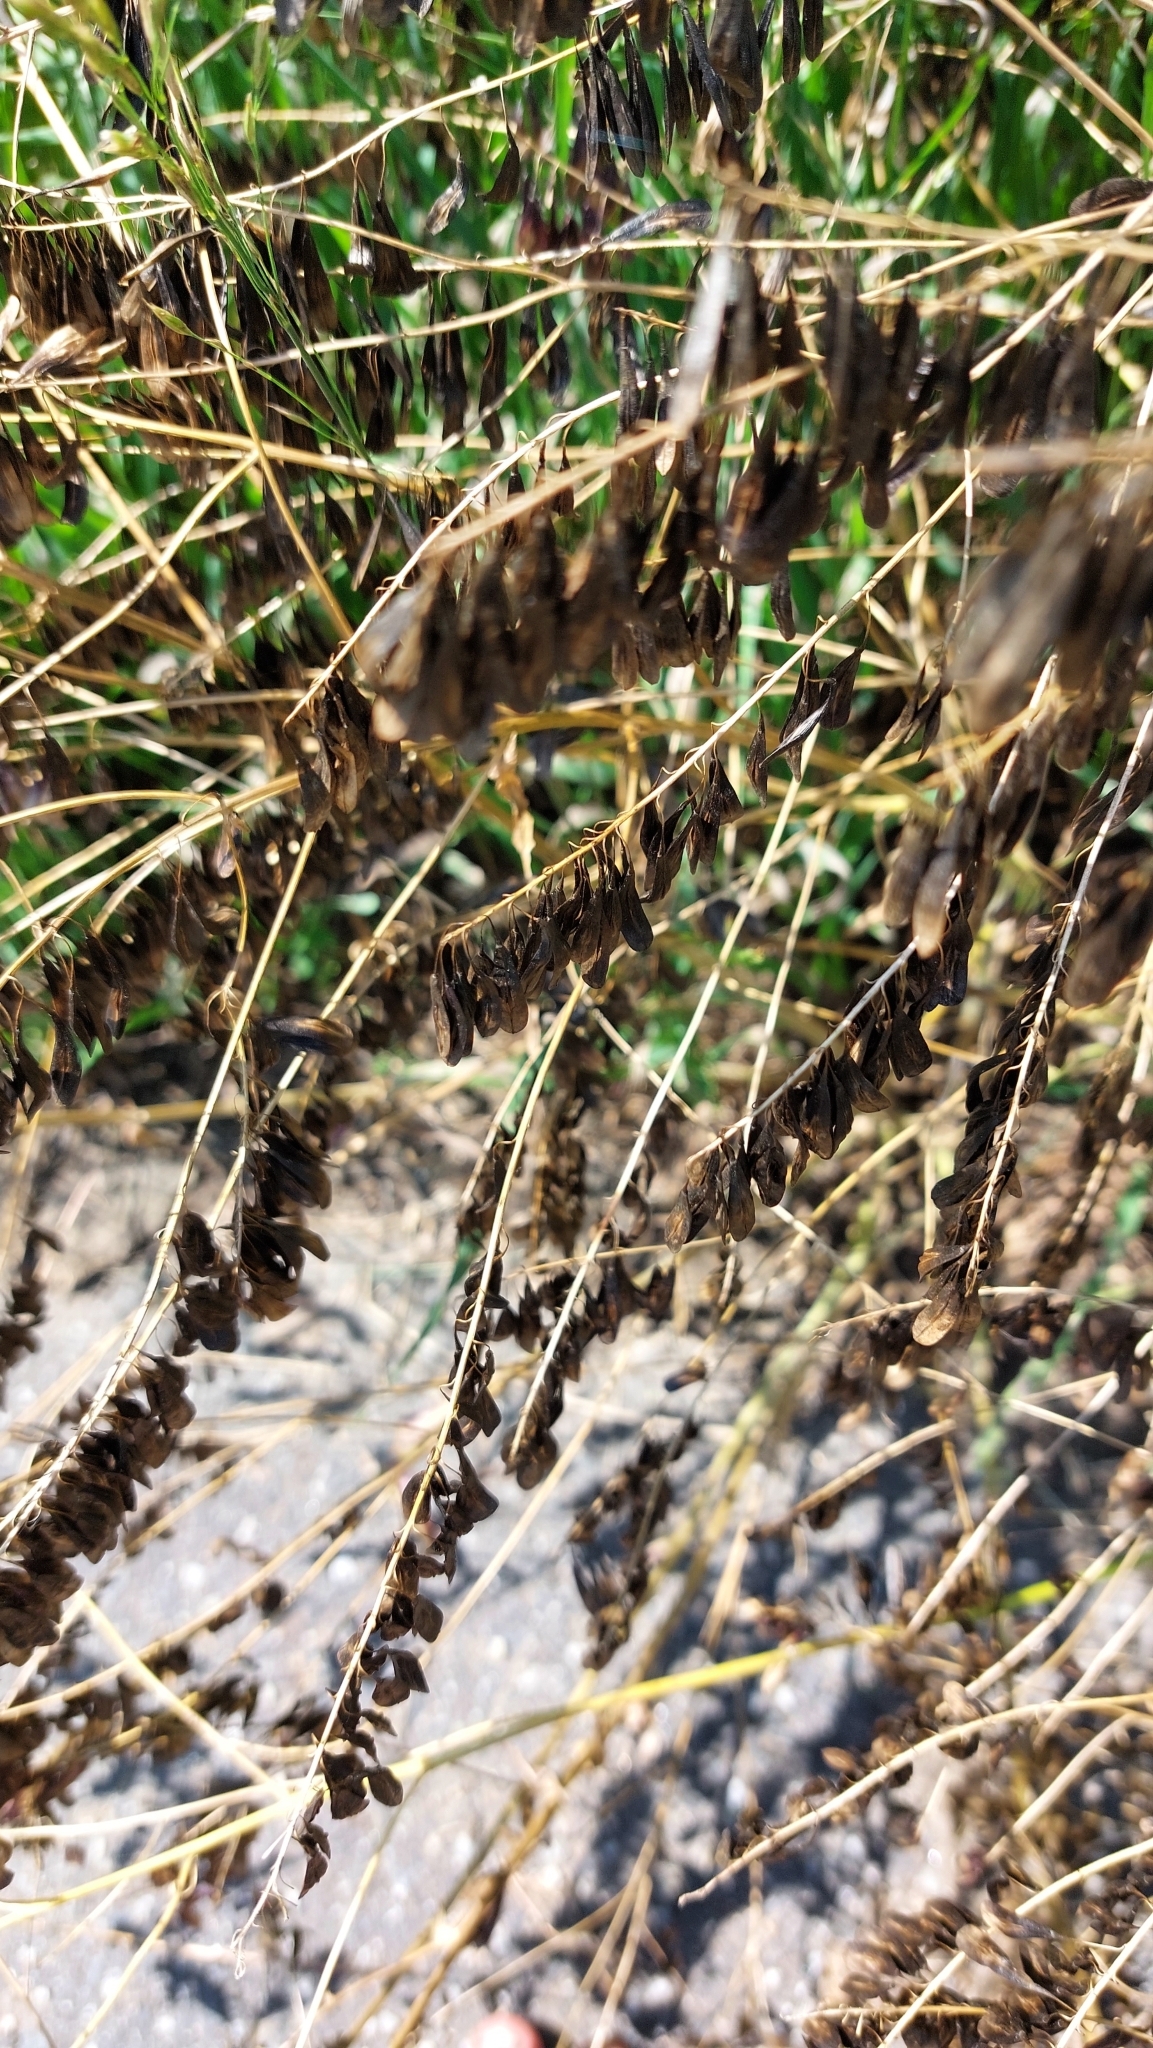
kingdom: Plantae
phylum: Tracheophyta
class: Magnoliopsida
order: Brassicales
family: Brassicaceae
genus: Isatis
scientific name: Isatis tinctoria
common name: Woad
